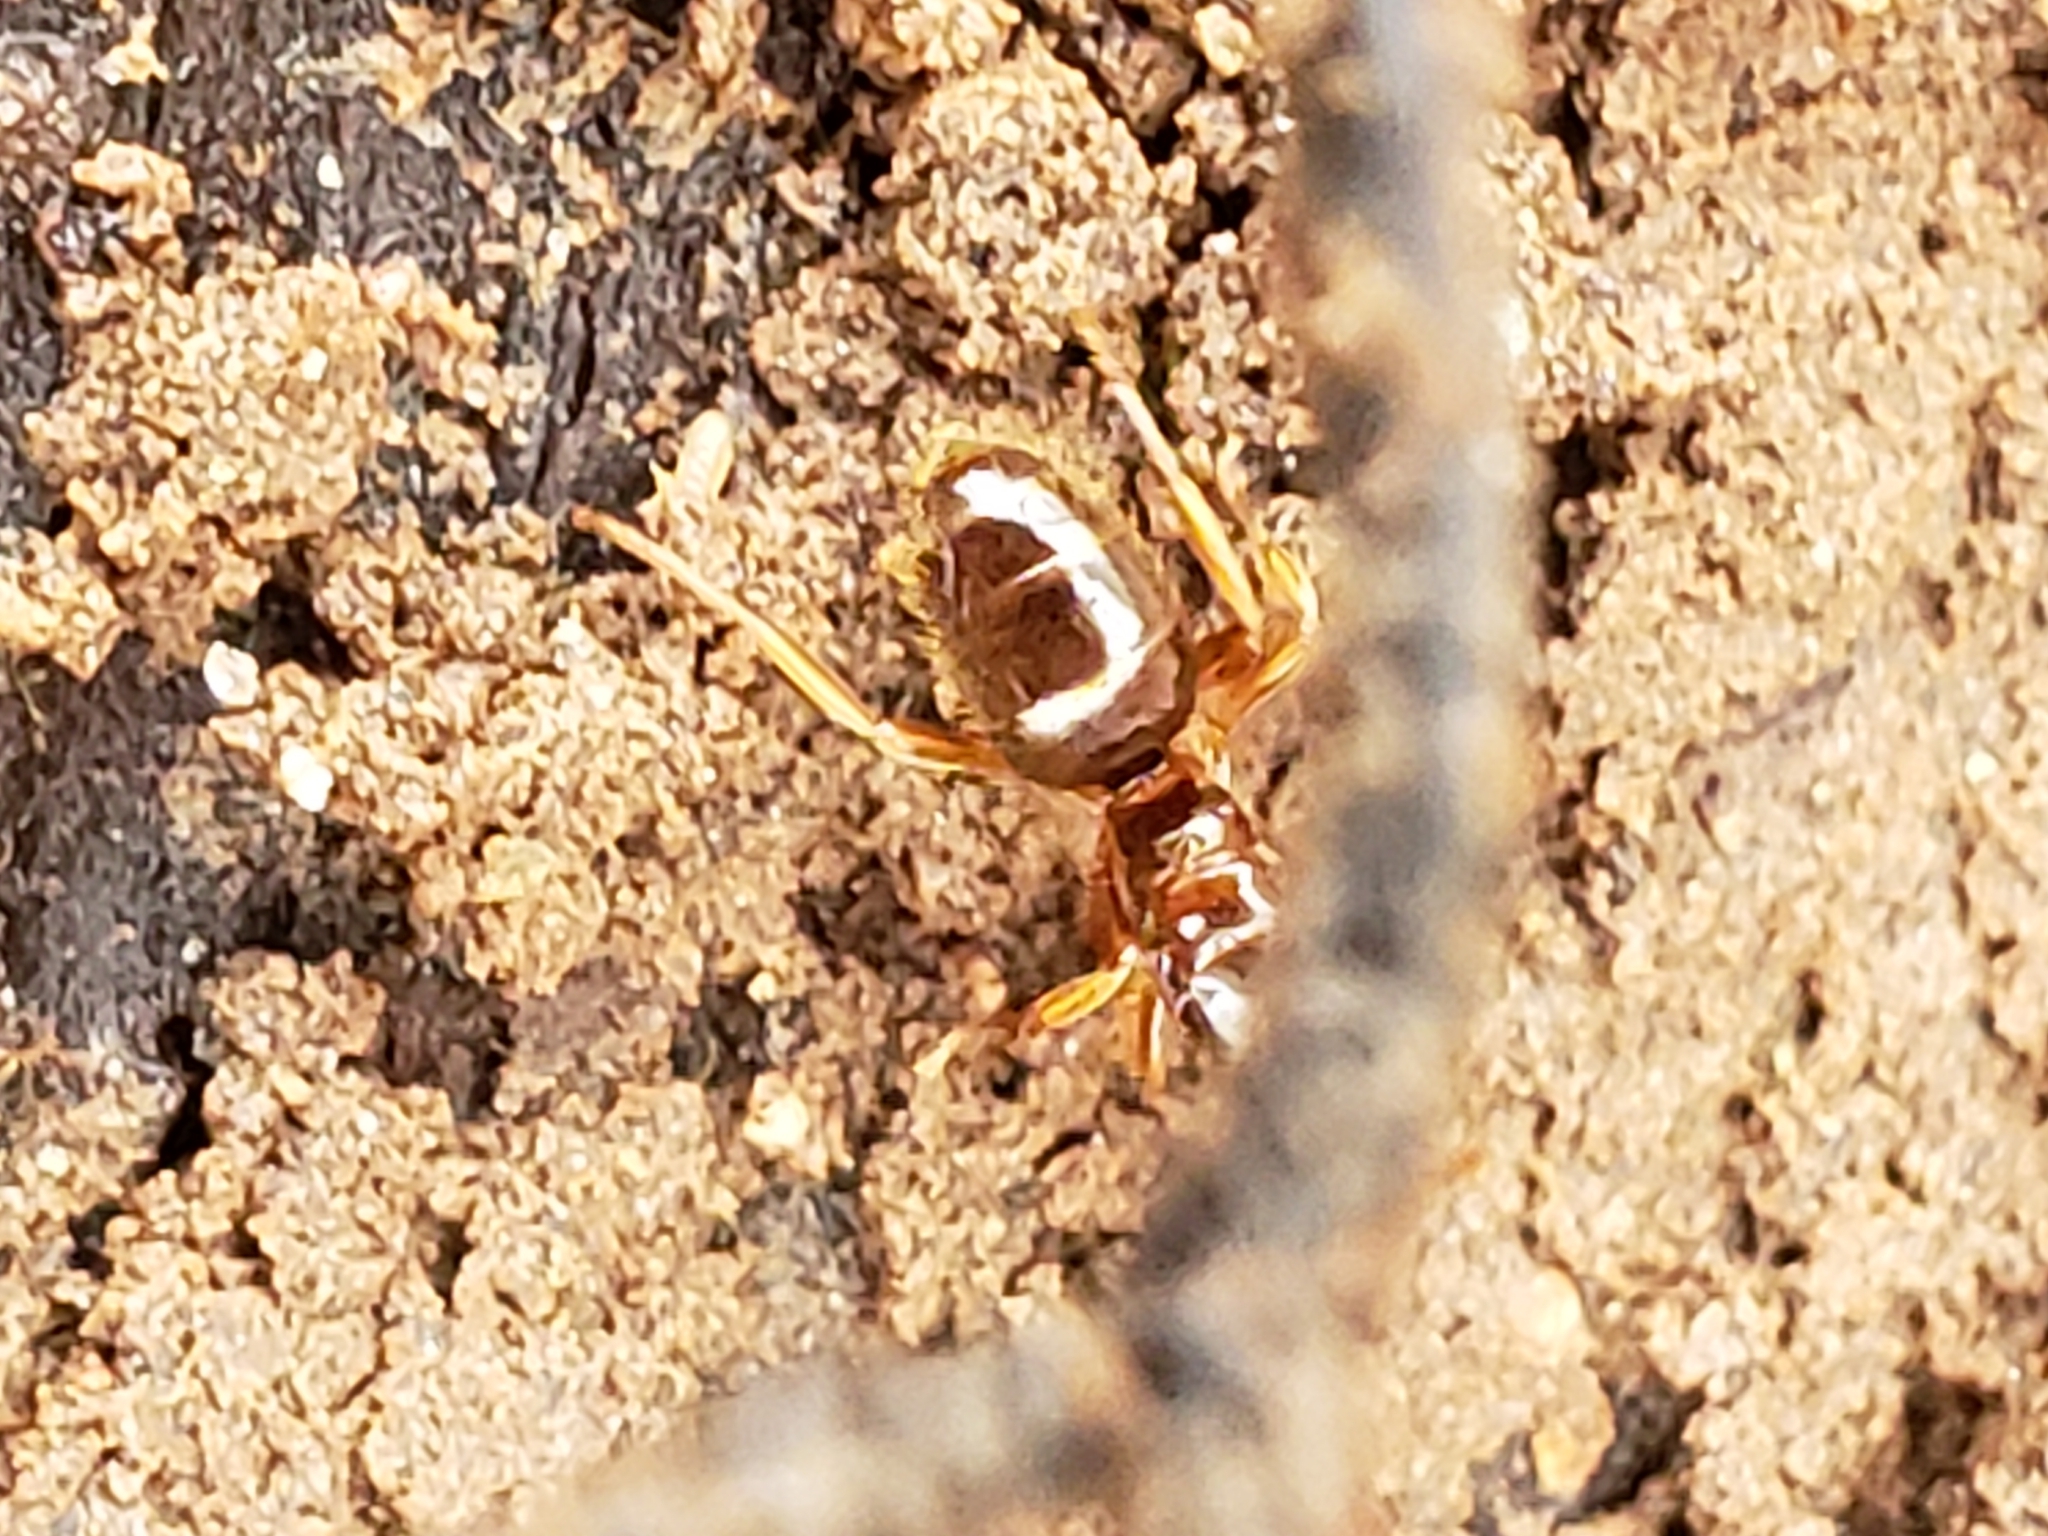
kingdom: Animalia
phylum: Arthropoda
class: Insecta
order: Hymenoptera
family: Formicidae
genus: Lasius
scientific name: Lasius claviger
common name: Common citronella ant
